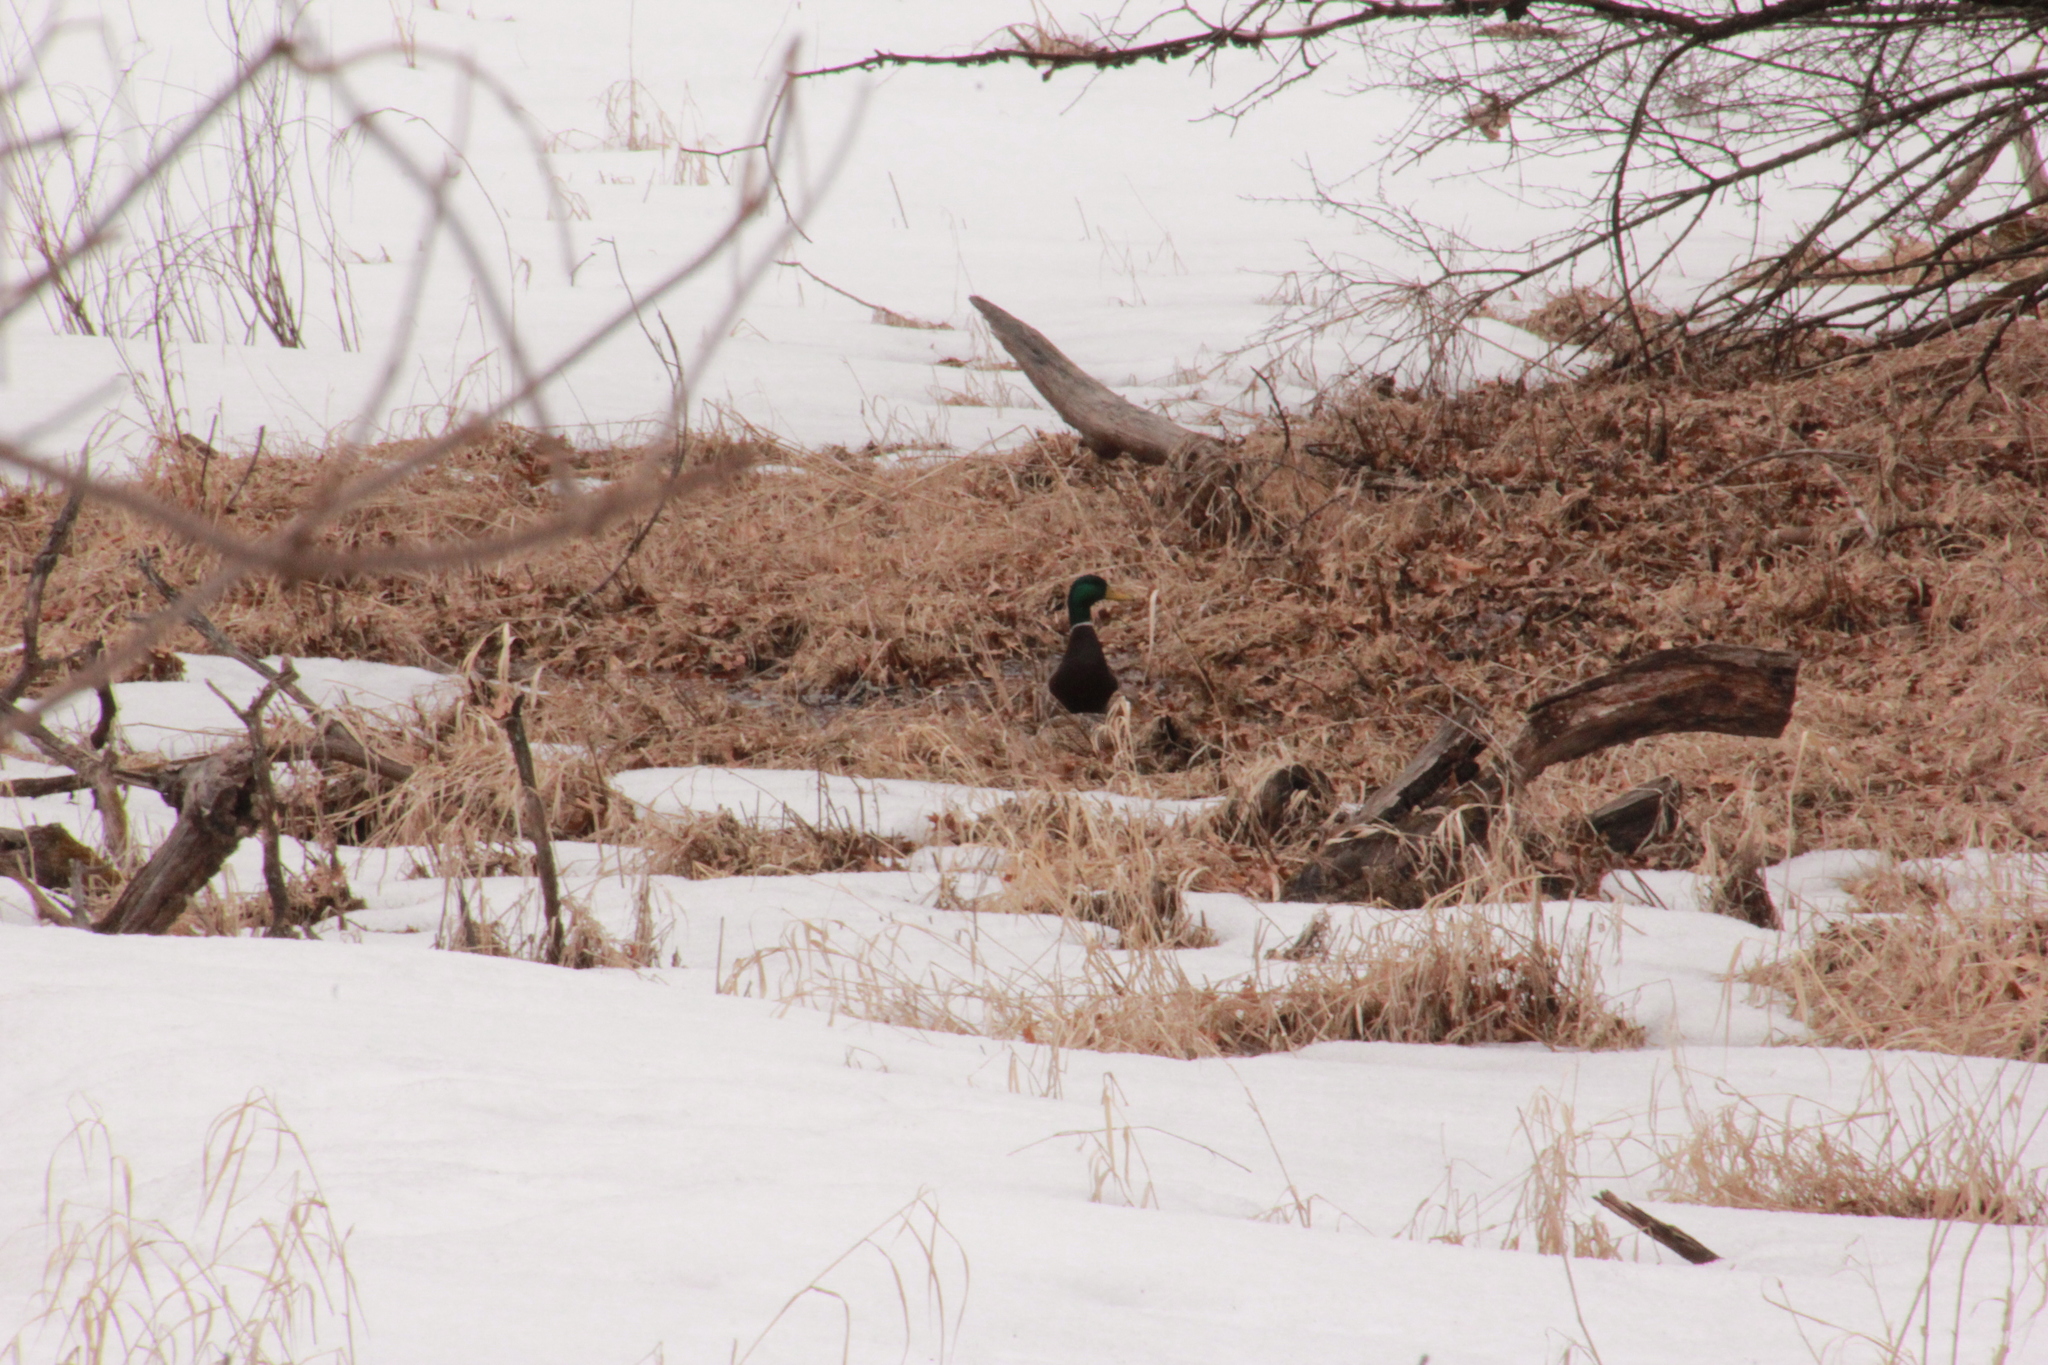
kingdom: Animalia
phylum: Chordata
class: Aves
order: Anseriformes
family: Anatidae
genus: Anas
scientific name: Anas platyrhynchos
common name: Mallard
